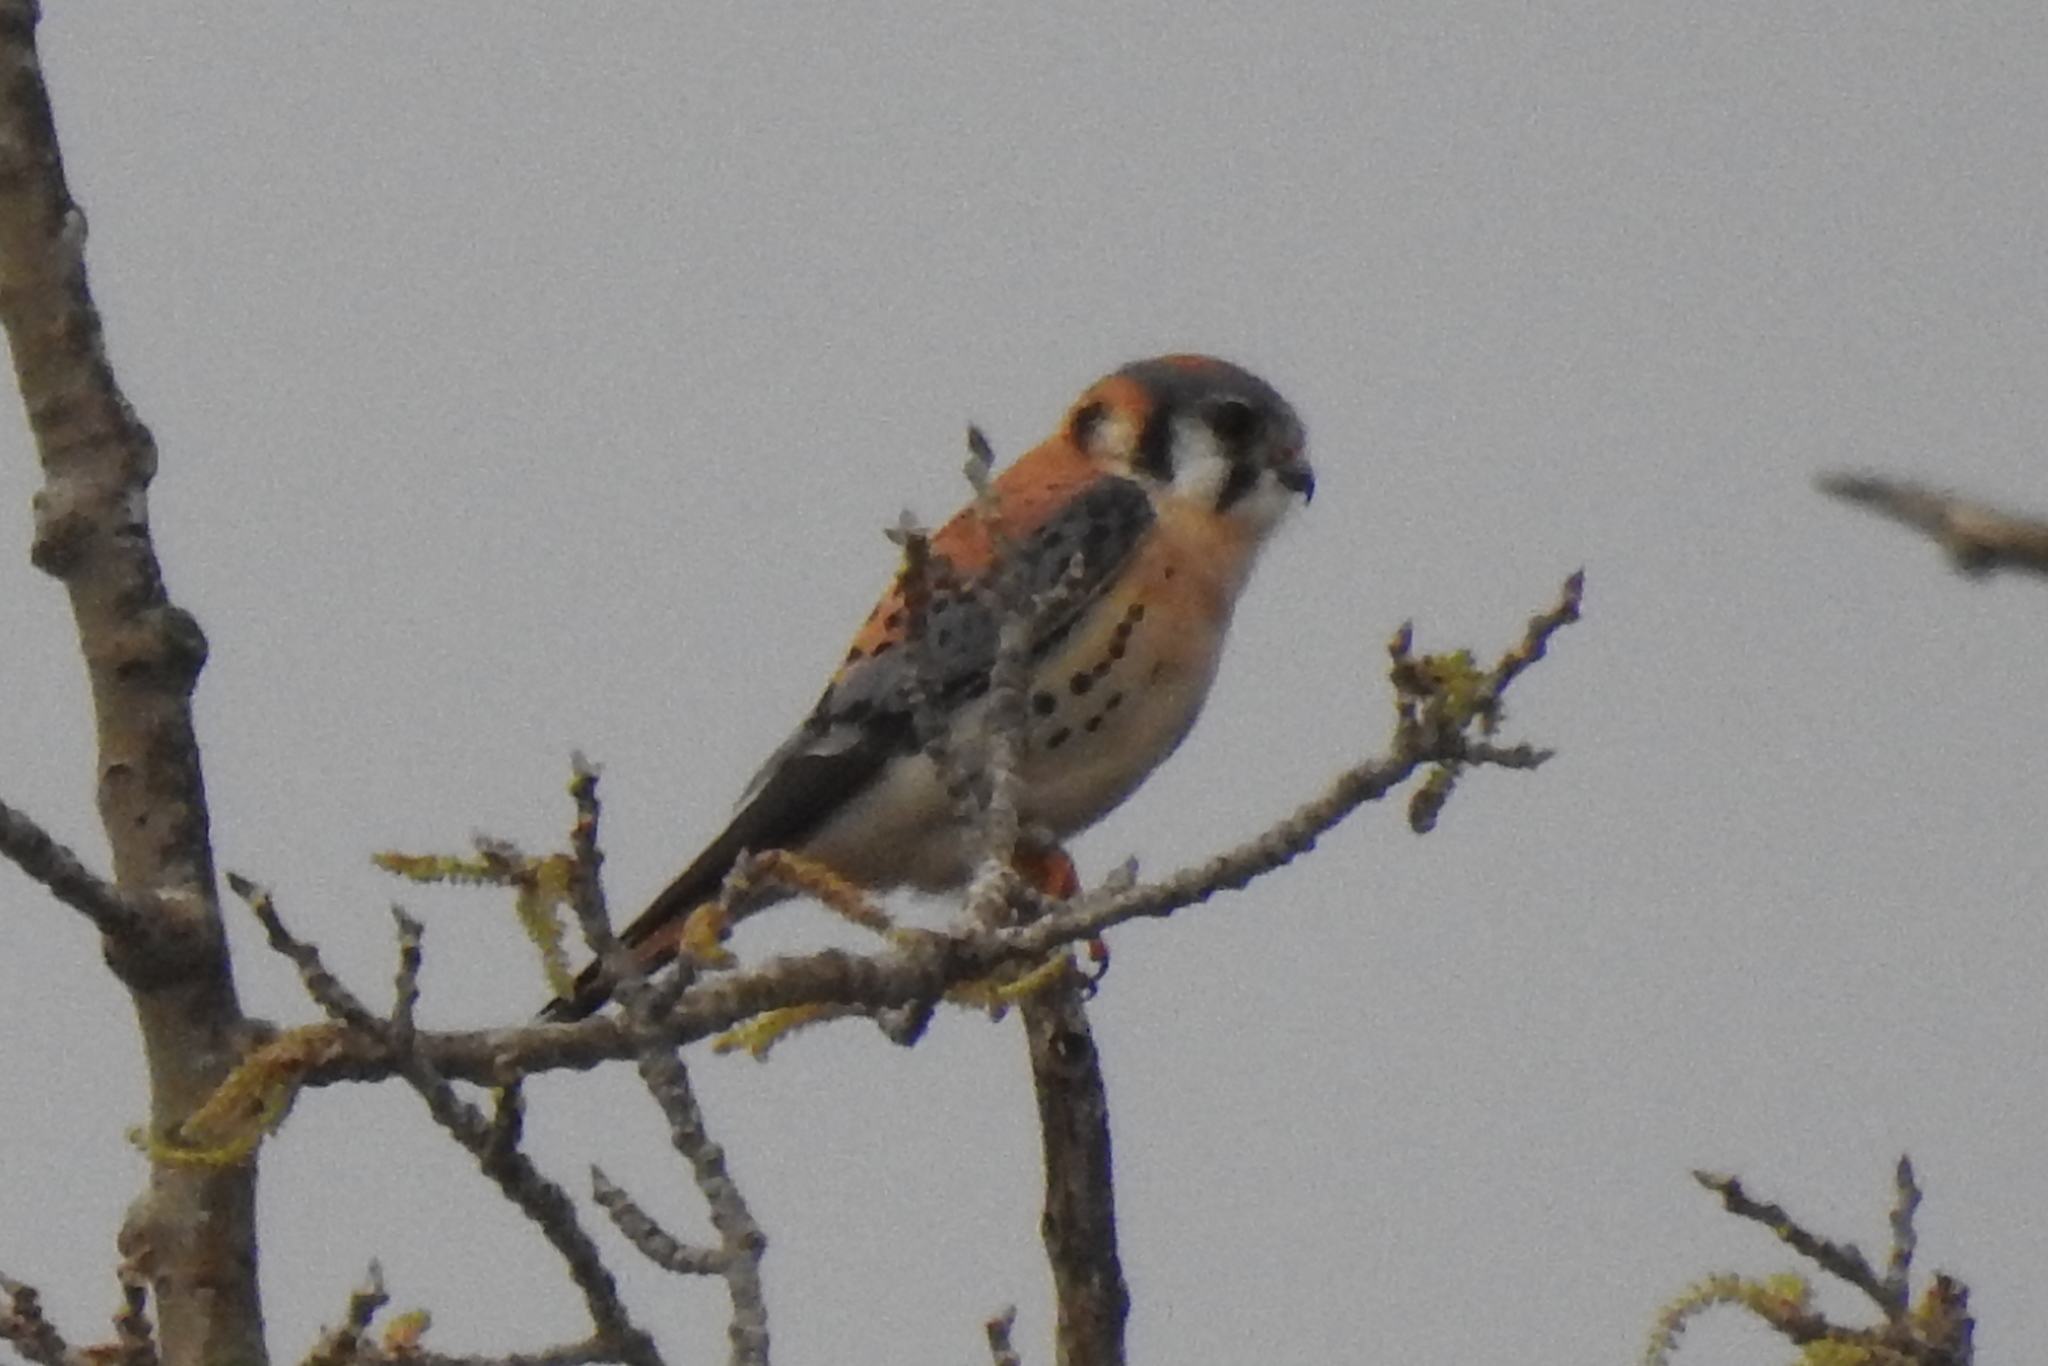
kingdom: Animalia
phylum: Chordata
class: Aves
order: Falconiformes
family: Falconidae
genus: Falco
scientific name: Falco sparverius
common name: American kestrel
